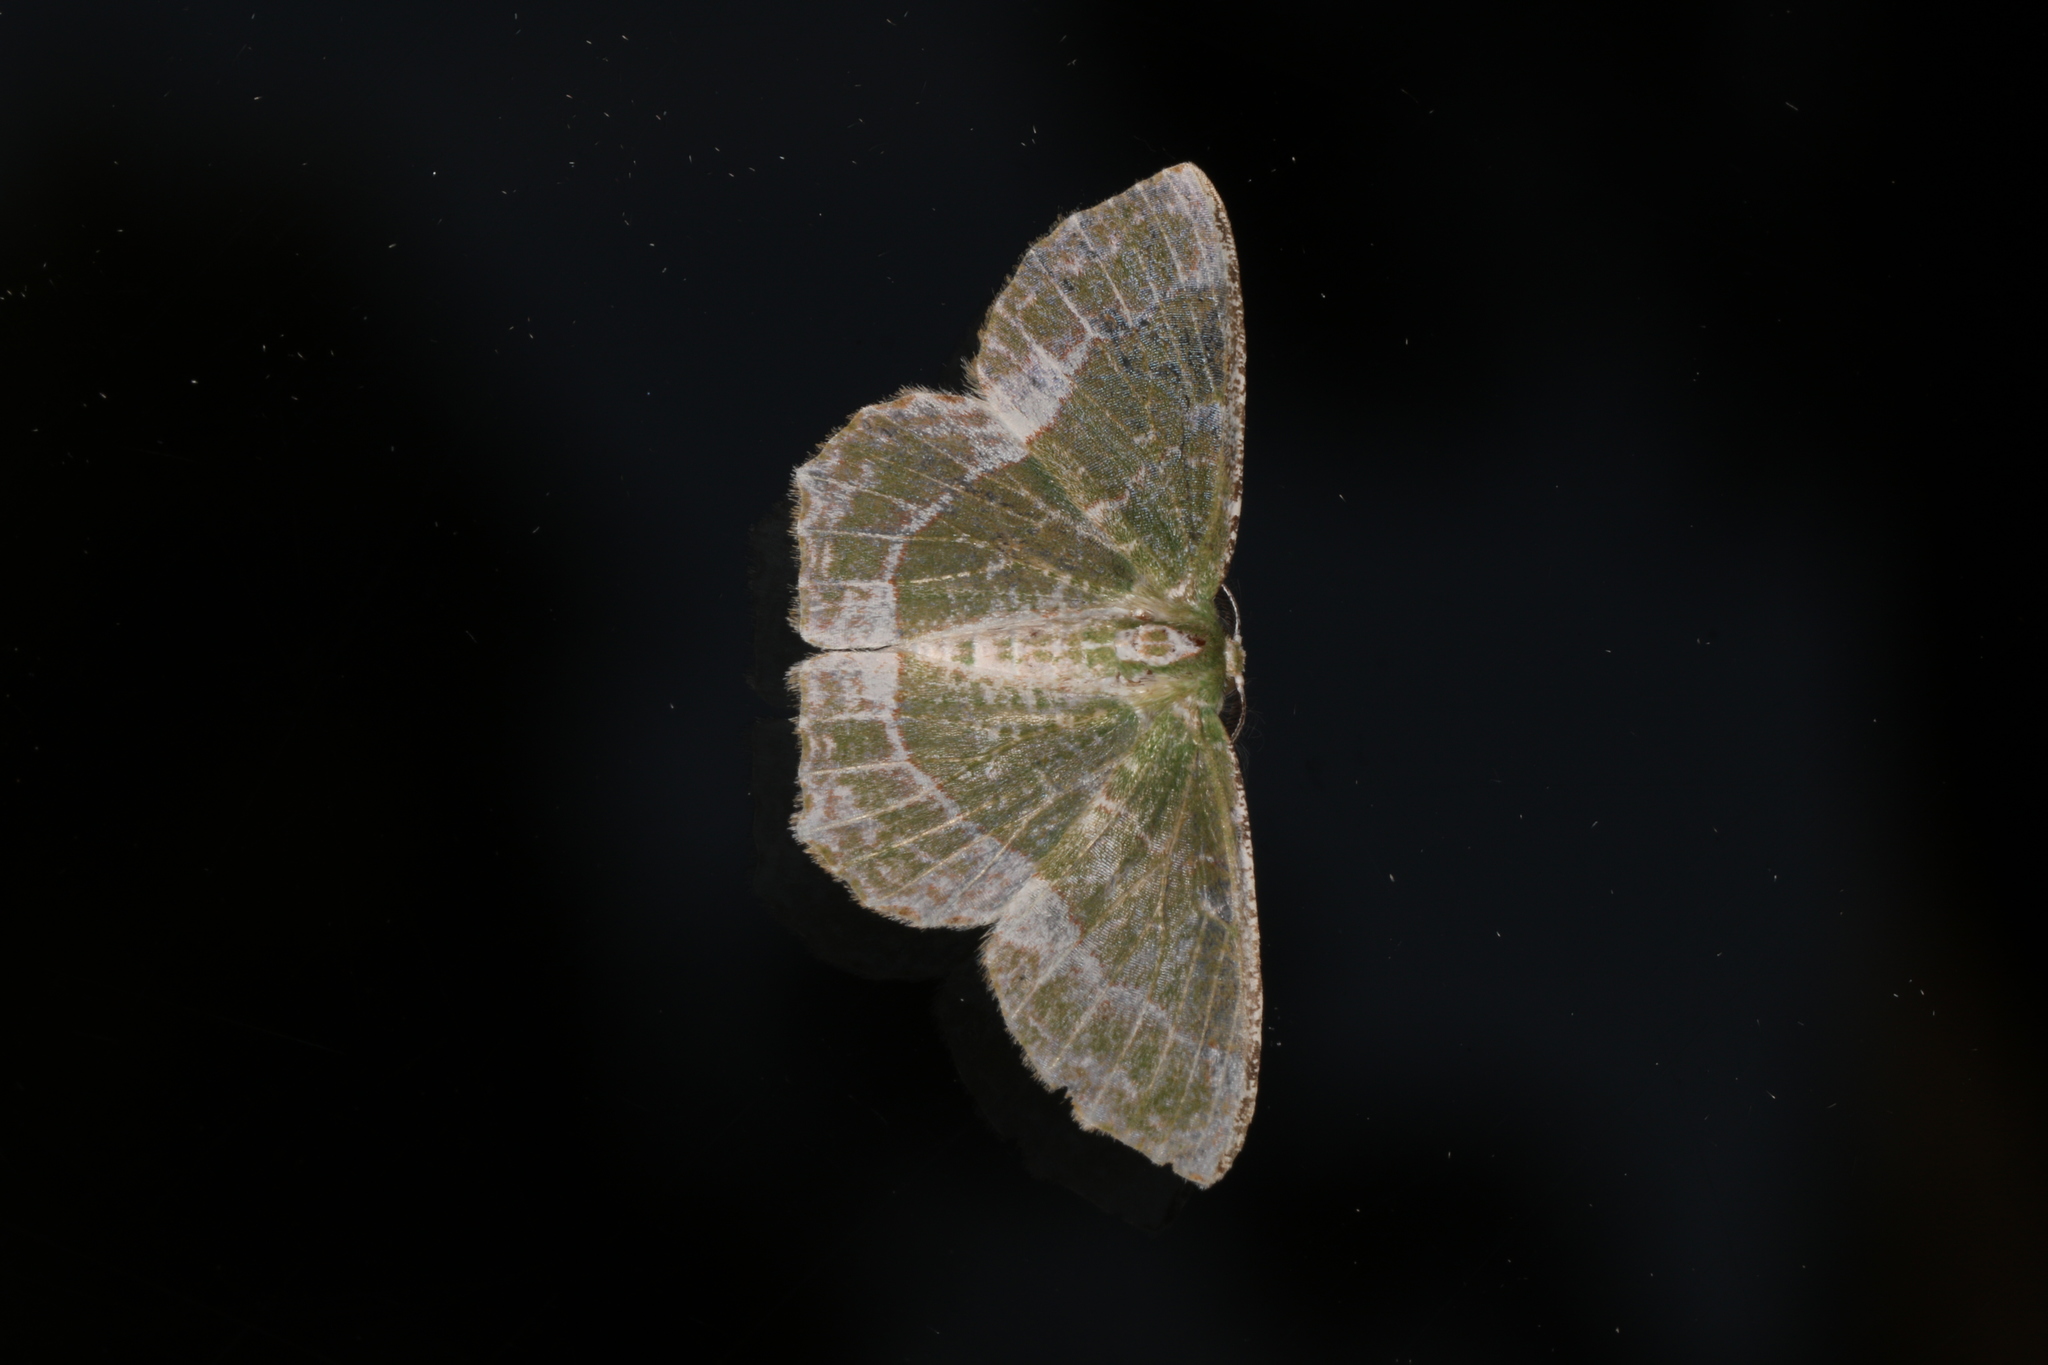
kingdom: Animalia
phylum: Arthropoda
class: Insecta
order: Lepidoptera
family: Geometridae
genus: Eucyclodes
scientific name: Eucyclodes insperata
